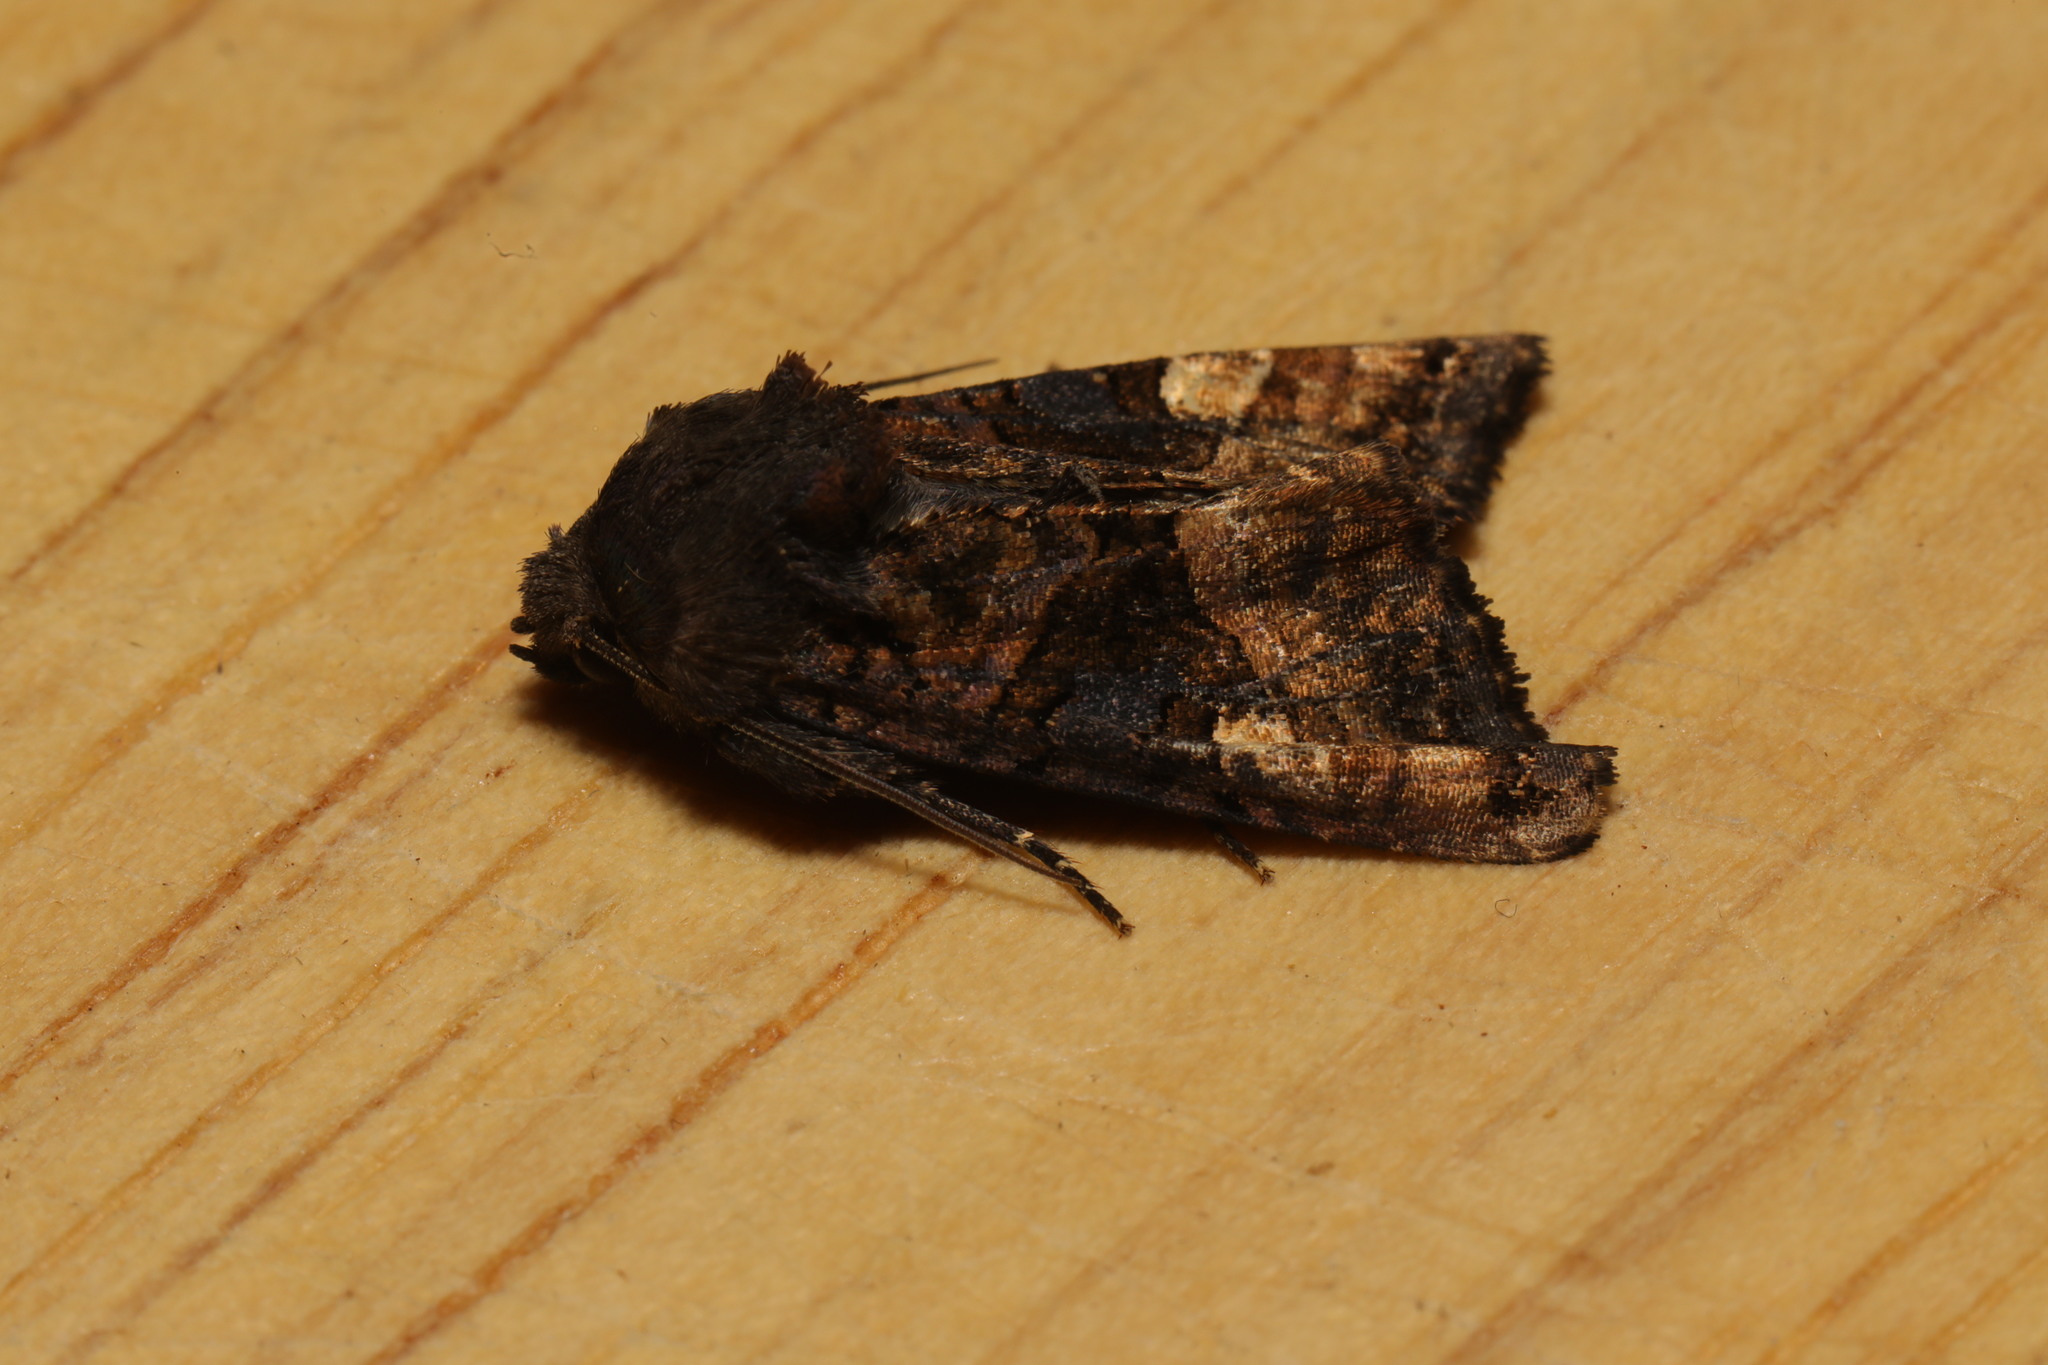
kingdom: Animalia
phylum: Arthropoda
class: Insecta
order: Lepidoptera
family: Noctuidae
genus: Euplexia
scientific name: Euplexia lucipara
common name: Small angle shades
